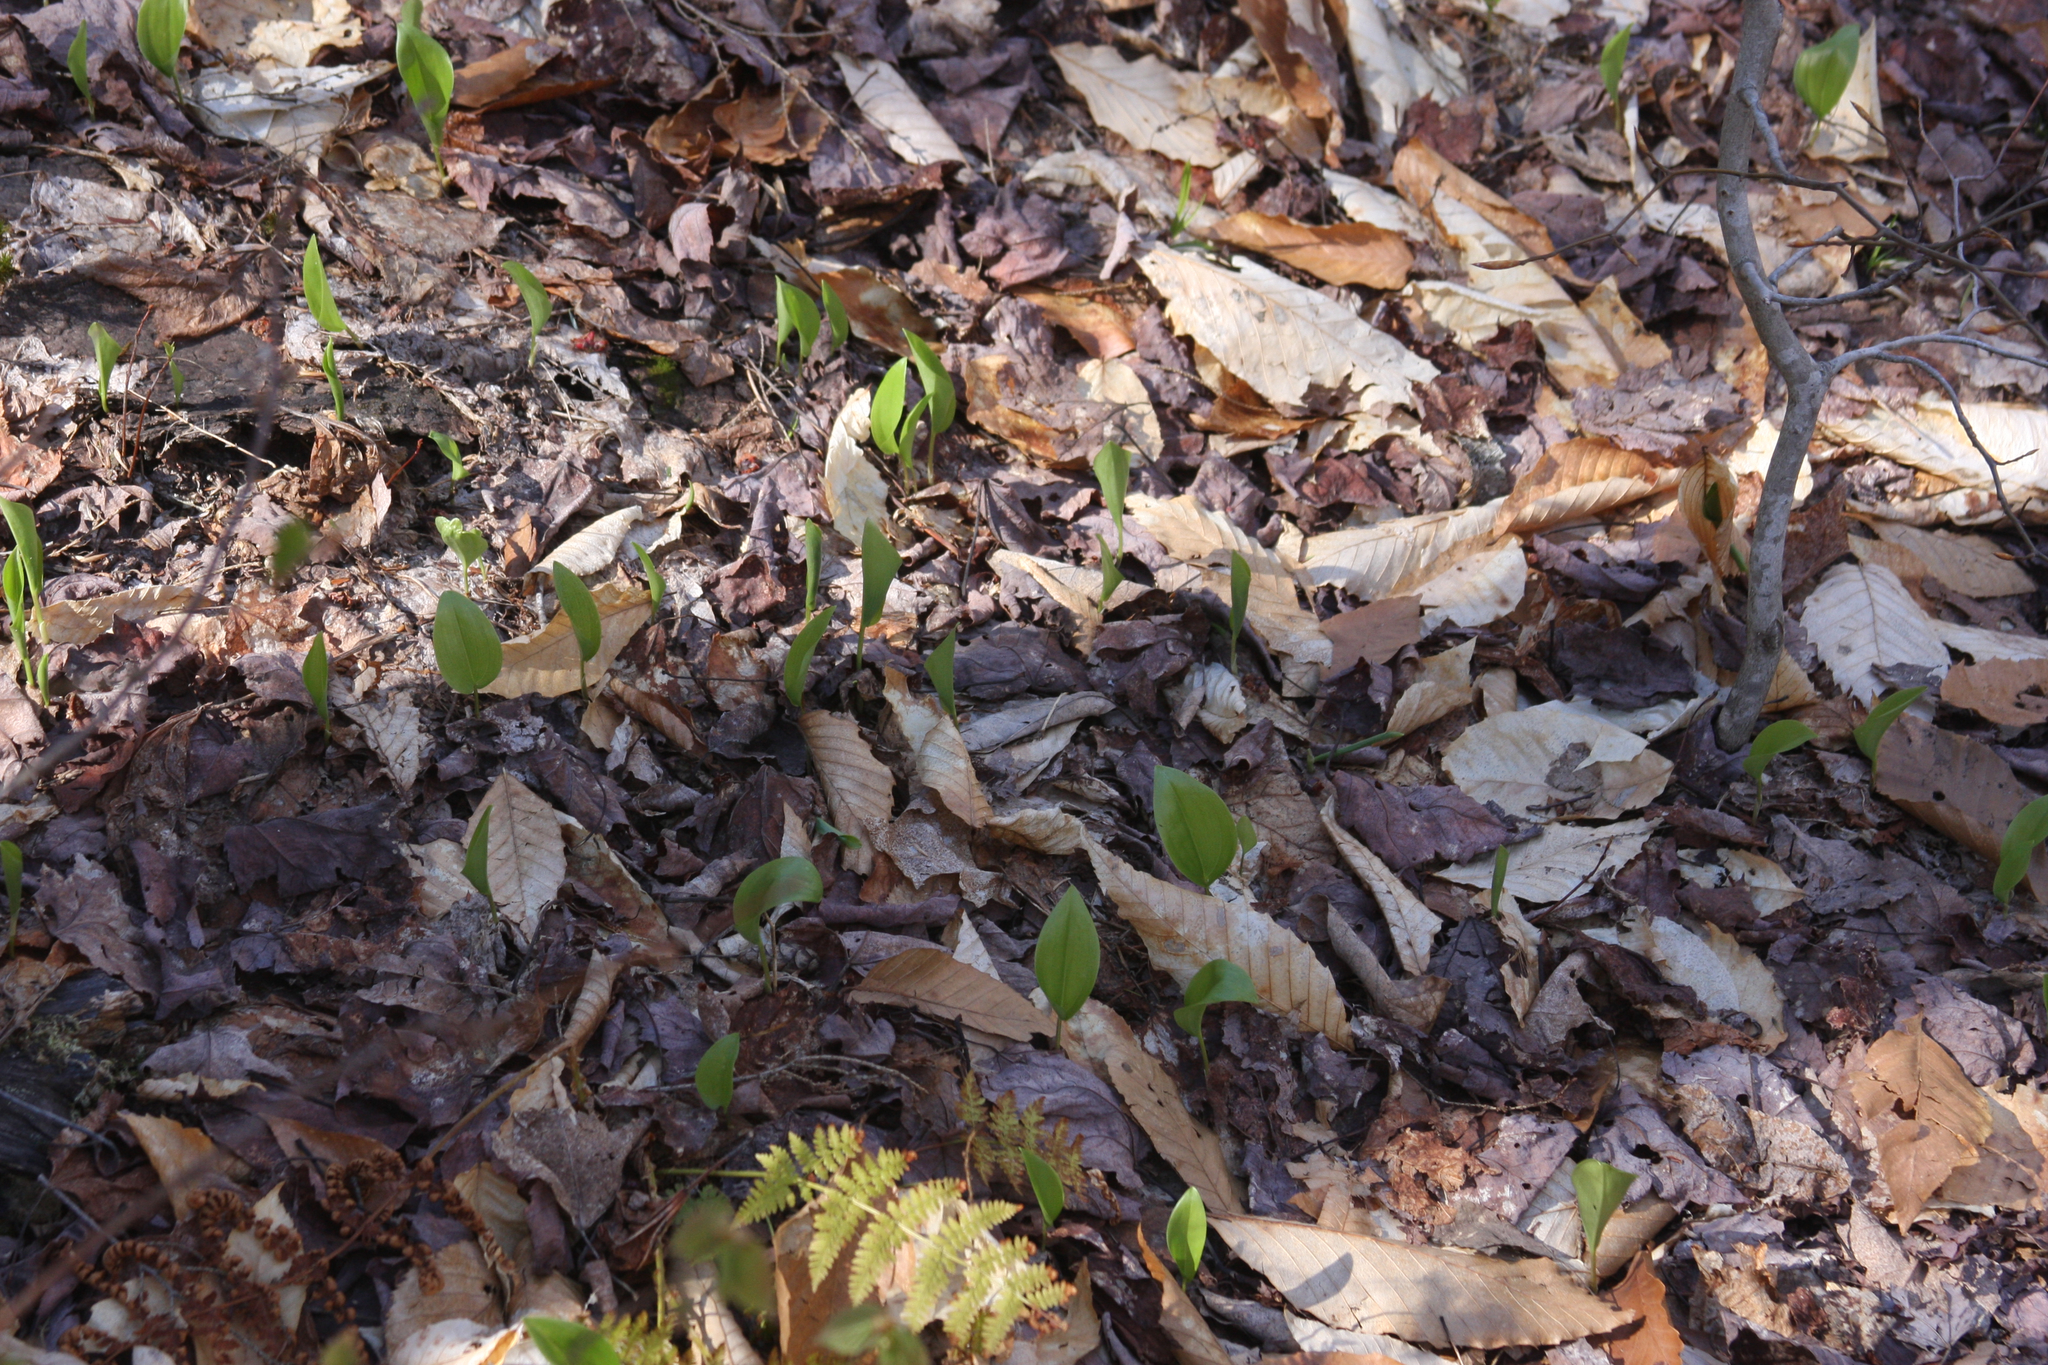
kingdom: Plantae
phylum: Tracheophyta
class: Liliopsida
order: Asparagales
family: Asparagaceae
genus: Maianthemum
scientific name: Maianthemum canadense
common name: False lily-of-the-valley
